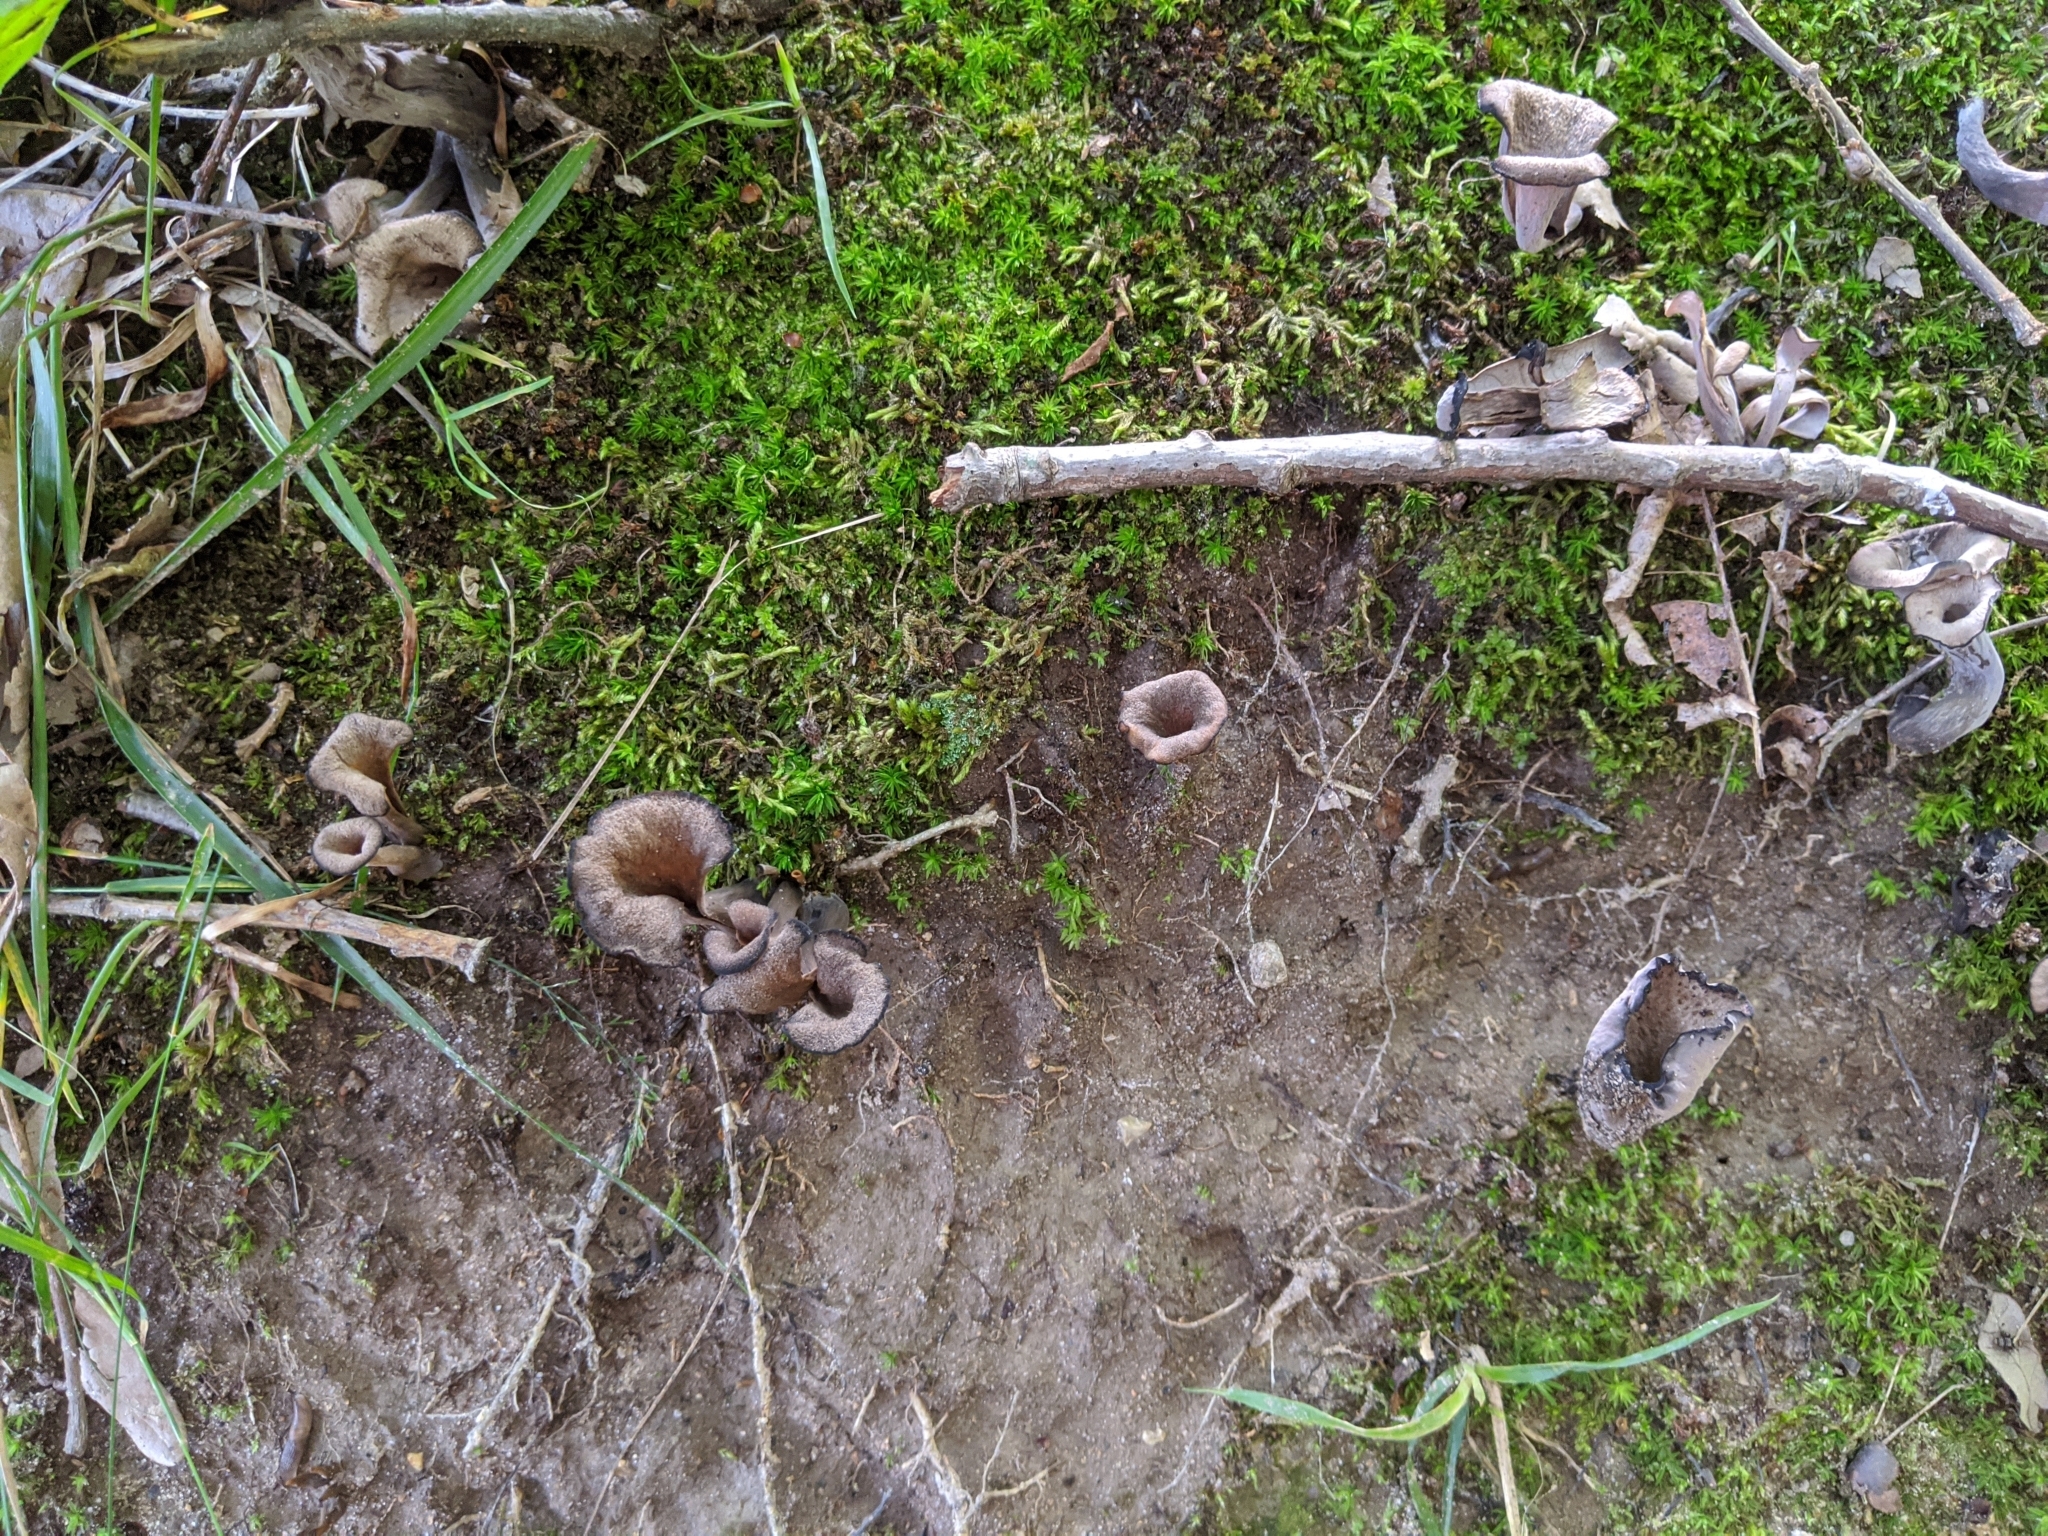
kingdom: Fungi
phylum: Basidiomycota
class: Agaricomycetes
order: Cantharellales
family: Hydnaceae
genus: Craterellus
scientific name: Craterellus cornucopioides
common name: Horn of plenty
